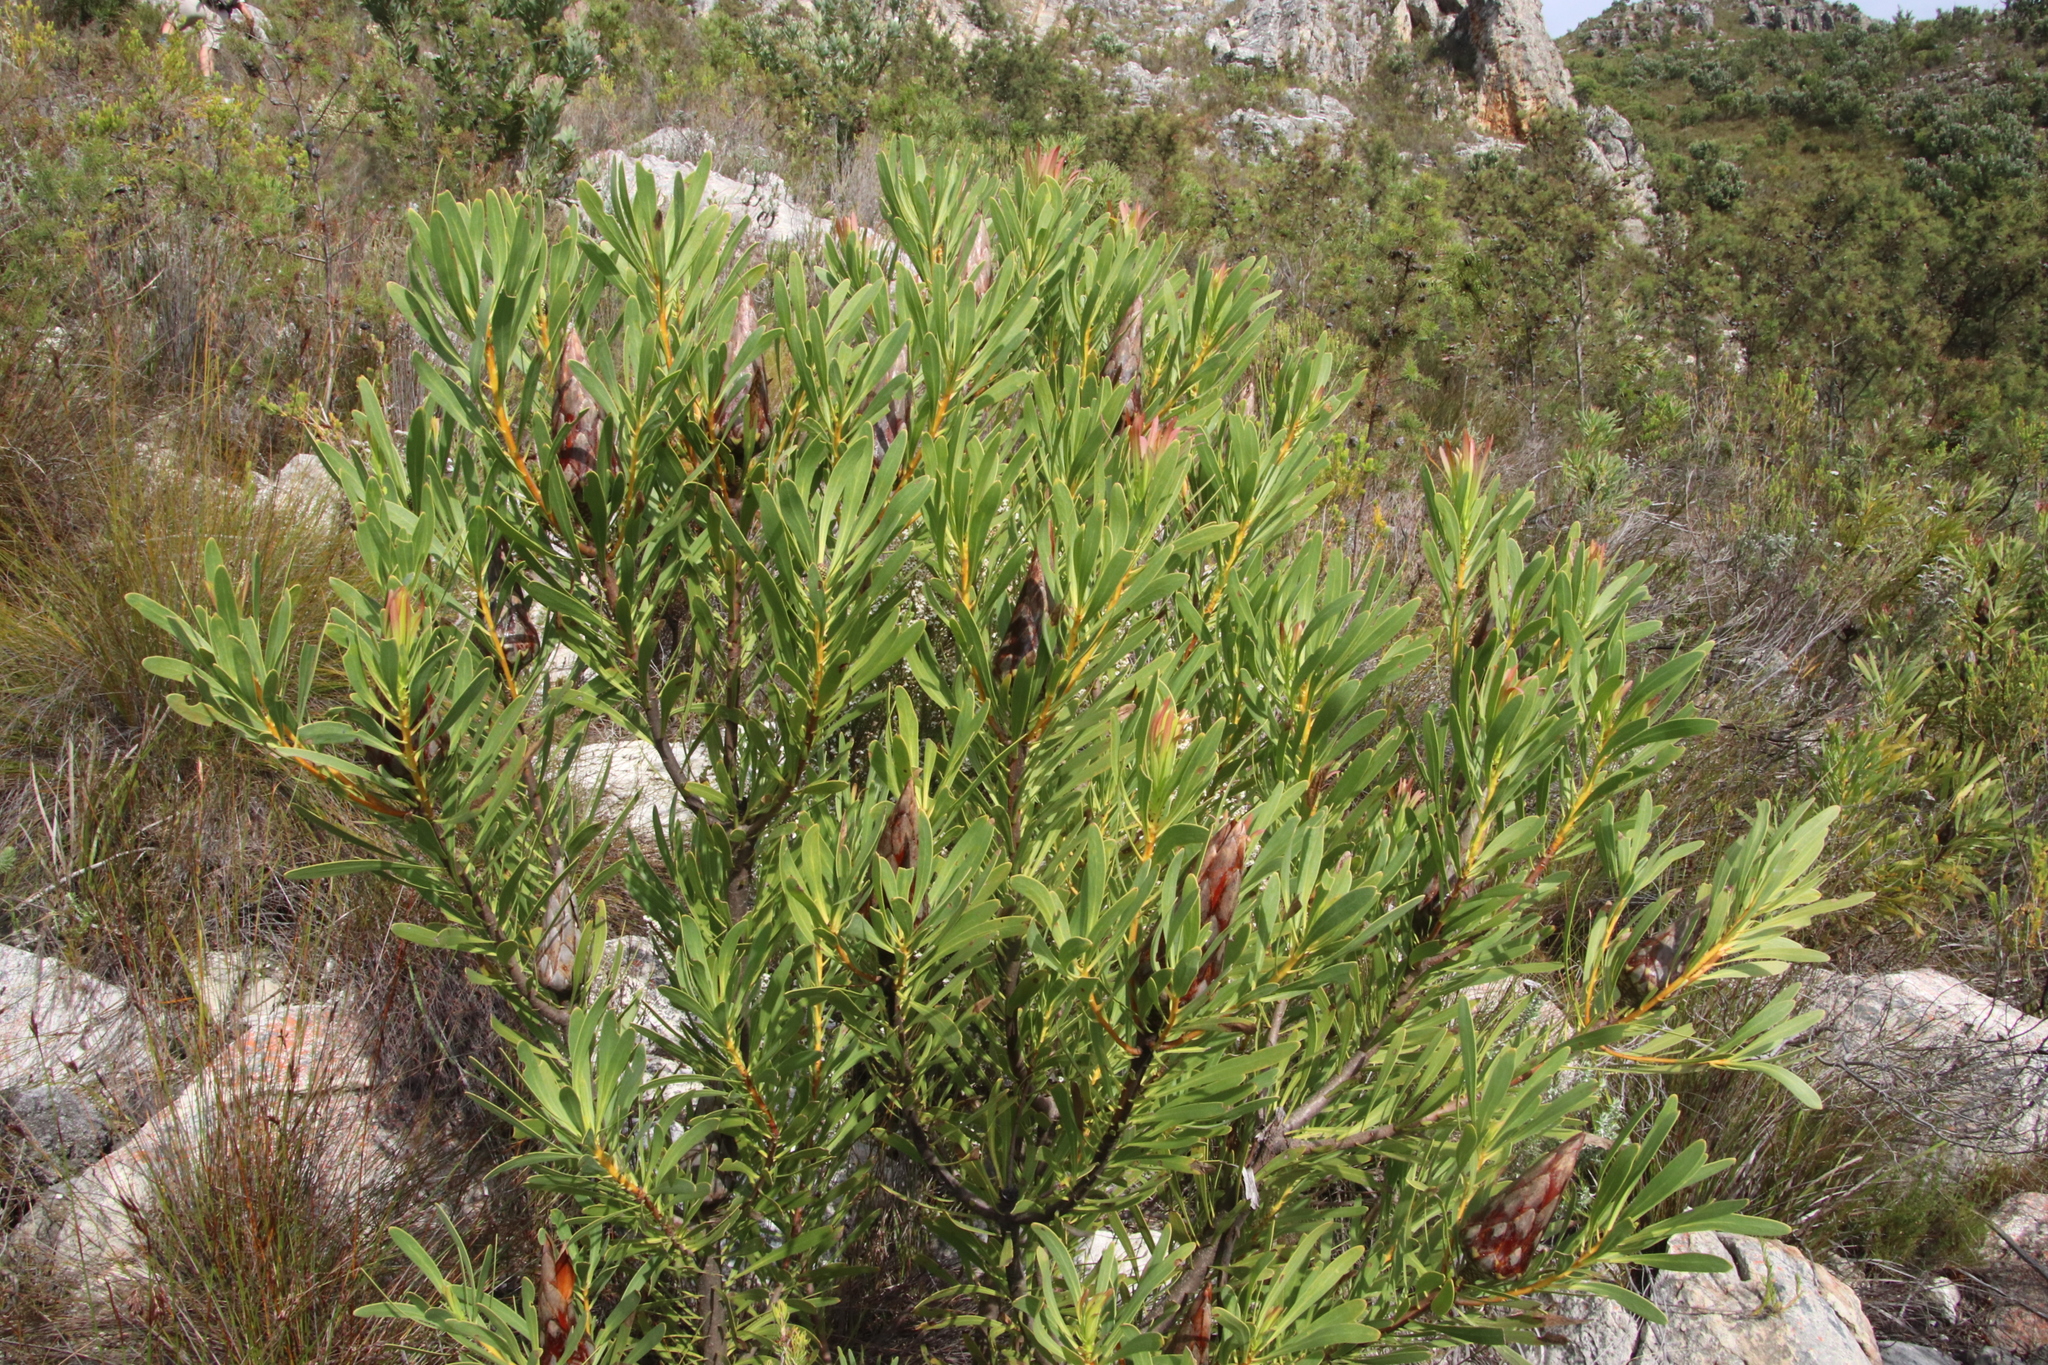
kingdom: Plantae
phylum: Tracheophyta
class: Magnoliopsida
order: Proteales
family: Proteaceae
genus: Protea
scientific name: Protea repens
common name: Sugarbush
